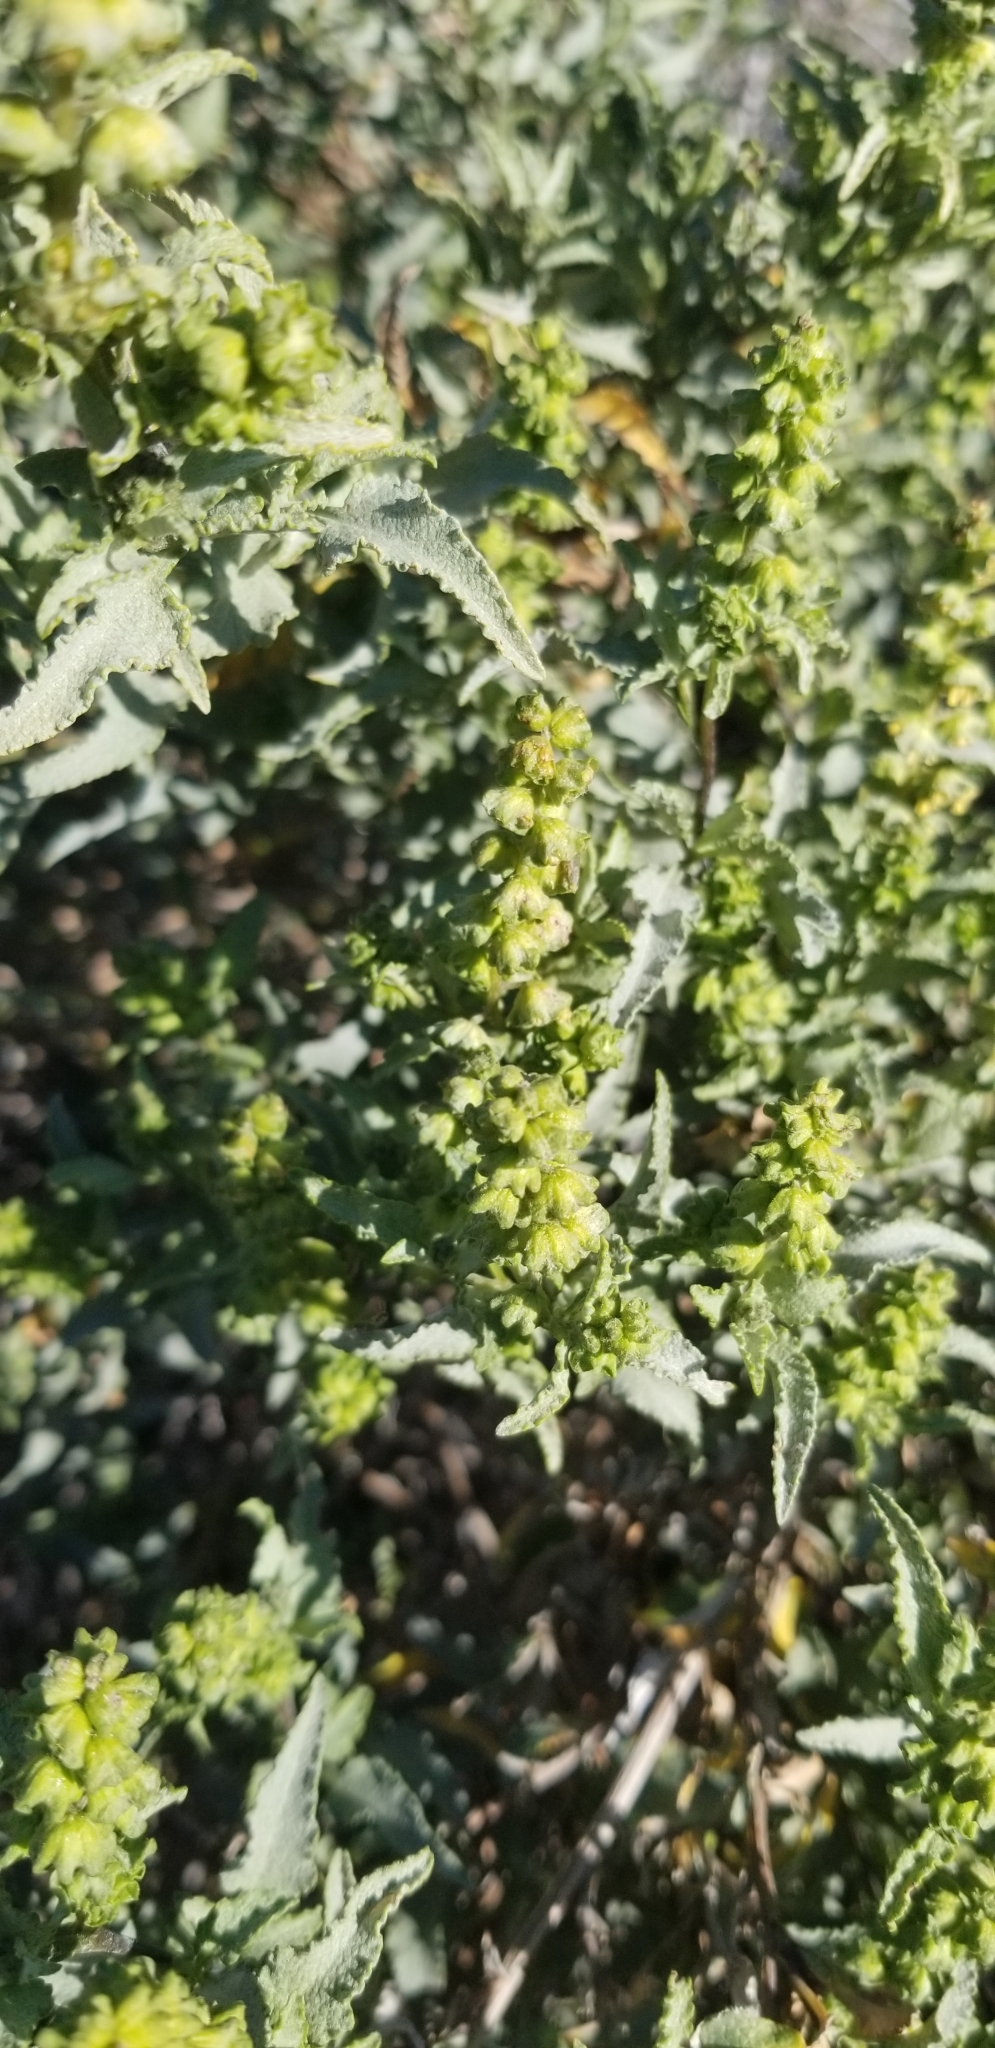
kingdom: Plantae
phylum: Tracheophyta
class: Magnoliopsida
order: Asterales
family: Asteraceae
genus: Ambrosia
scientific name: Ambrosia deltoidea
